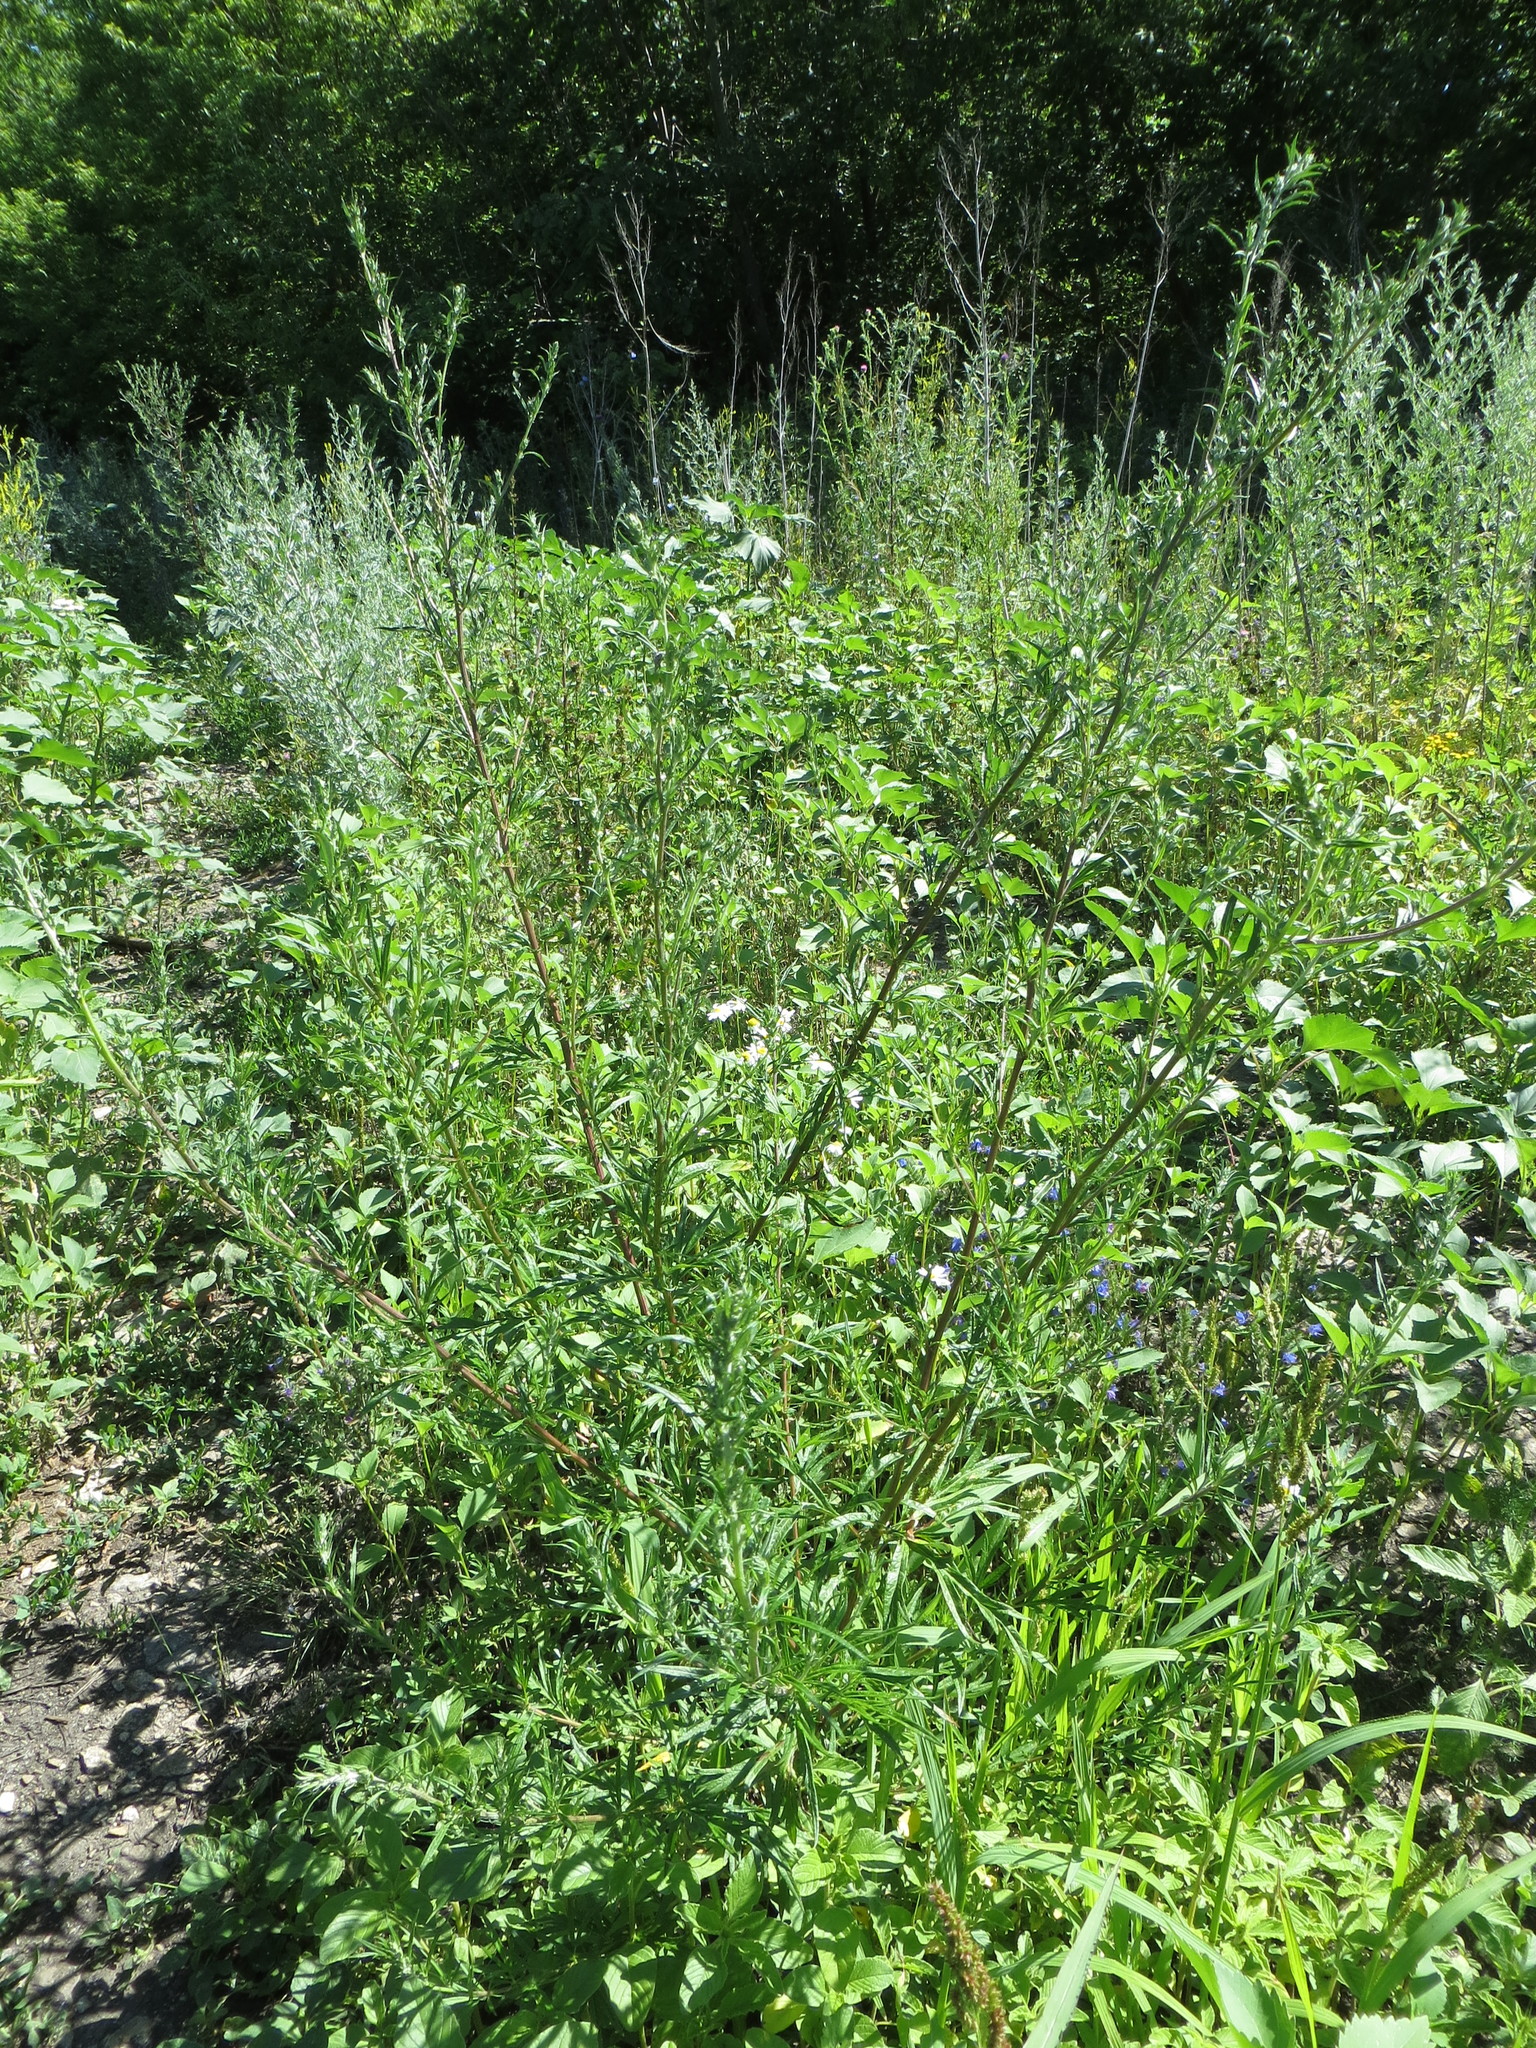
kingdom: Plantae
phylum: Tracheophyta
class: Magnoliopsida
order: Asterales
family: Asteraceae
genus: Artemisia
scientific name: Artemisia vulgaris
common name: Mugwort
